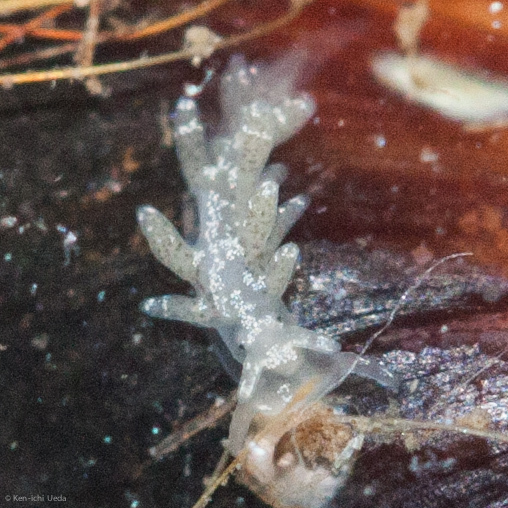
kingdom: Animalia
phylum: Mollusca
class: Gastropoda
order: Nudibranchia
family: Cuthonidae
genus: Cuthona
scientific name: Cuthona perca
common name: Lake merritt aeolis
